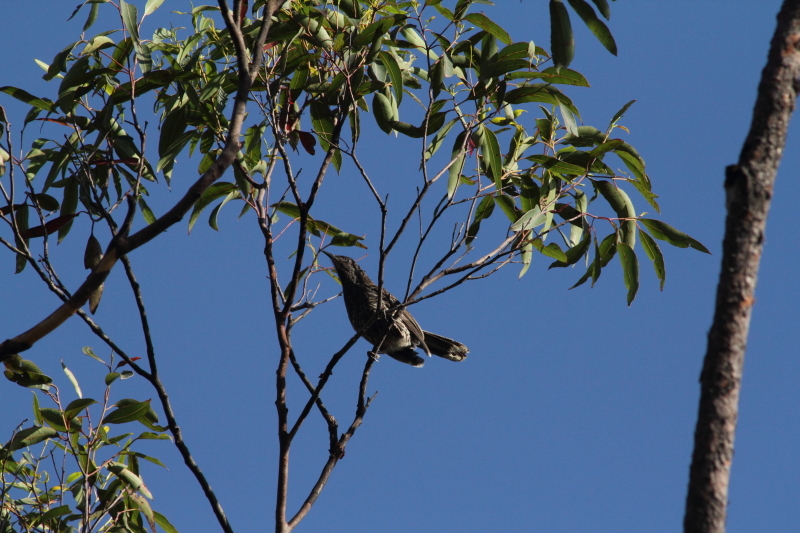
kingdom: Animalia
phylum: Chordata
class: Aves
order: Passeriformes
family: Meliphagidae
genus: Anthochaera
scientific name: Anthochaera chrysoptera
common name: Little wattlebird
